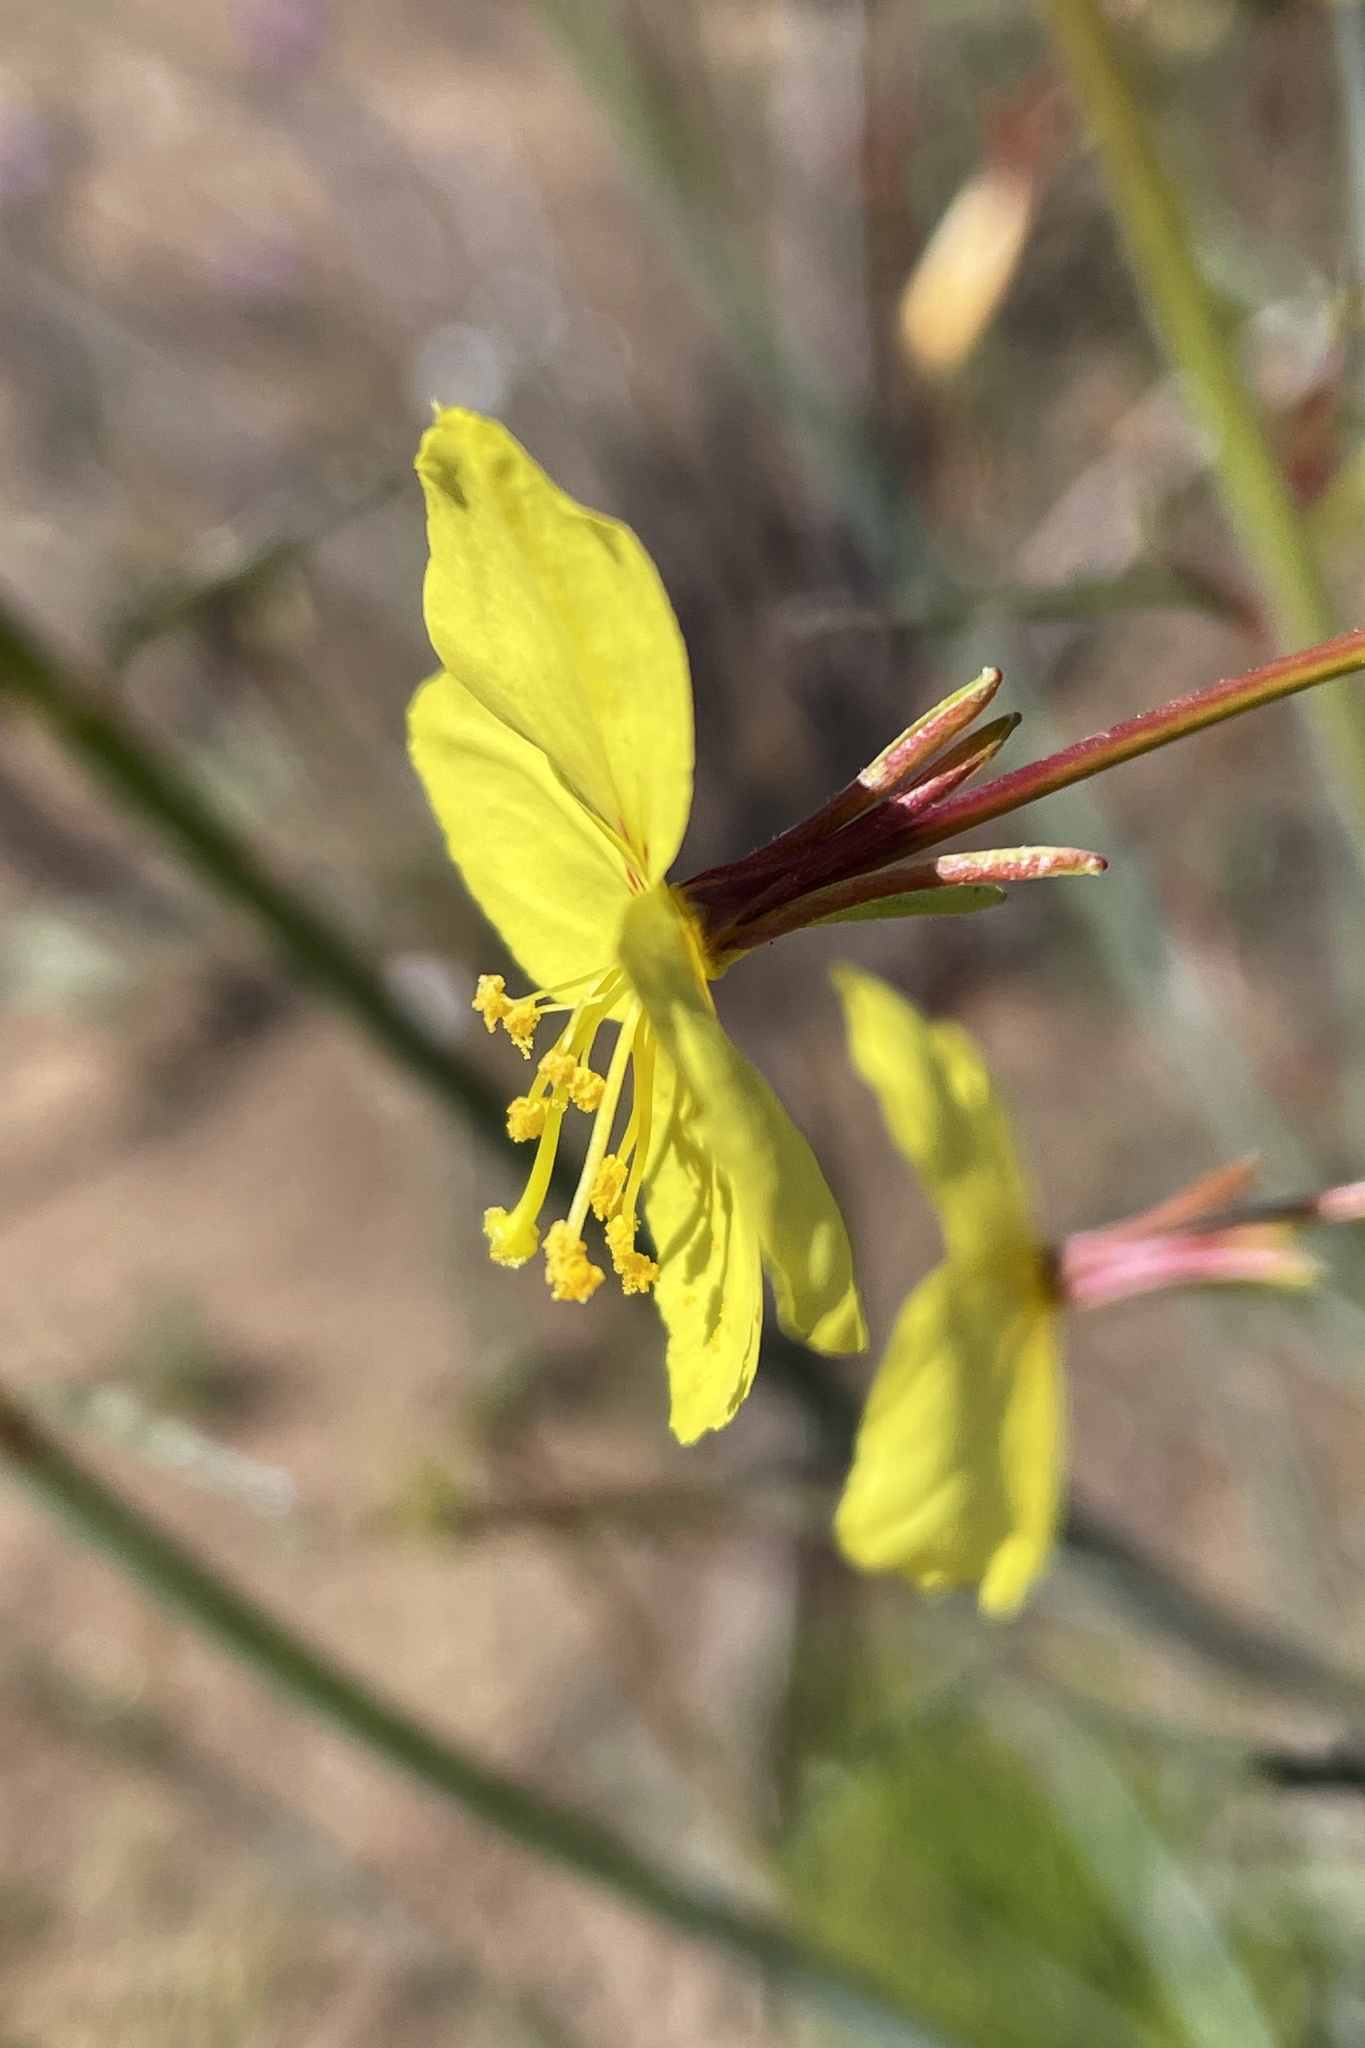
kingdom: Plantae
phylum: Tracheophyta
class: Magnoliopsida
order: Myrtales
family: Onagraceae
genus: Eulobus
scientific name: Eulobus californicus
